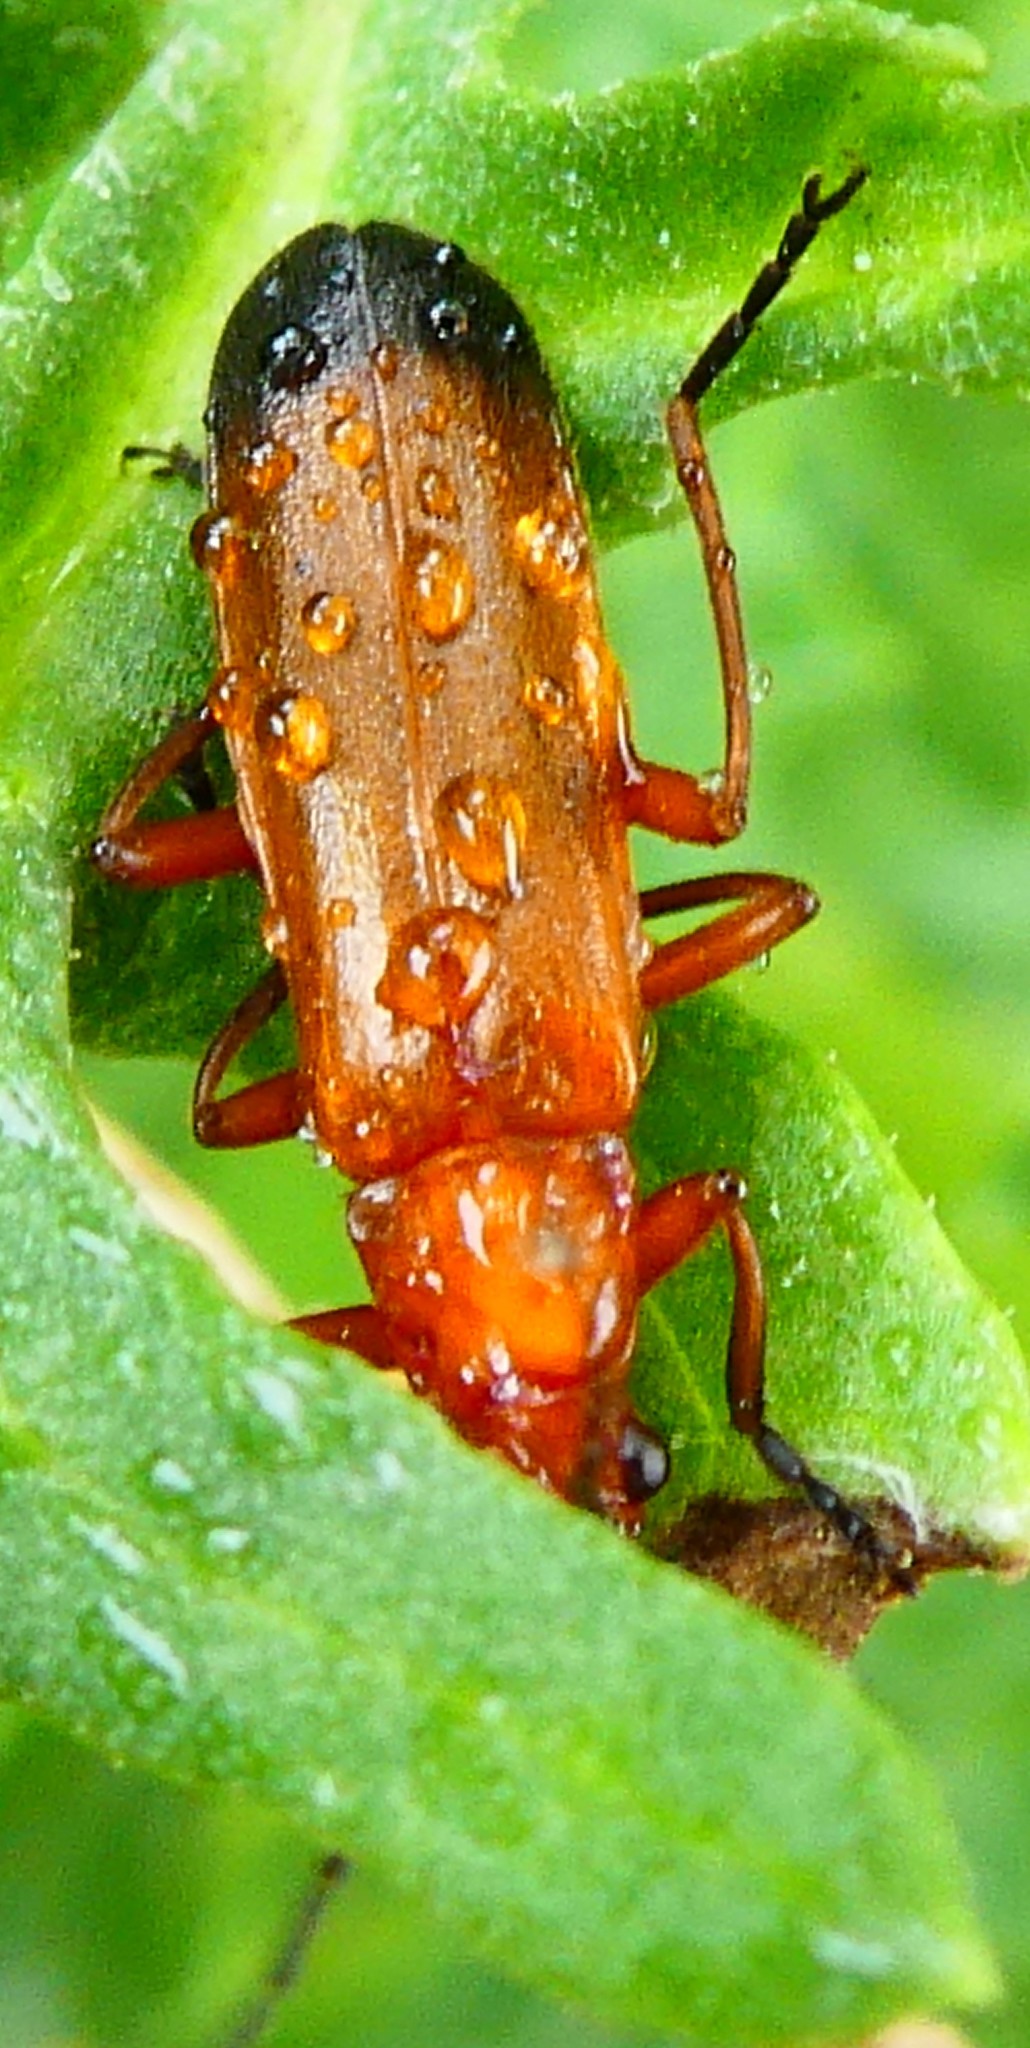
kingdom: Animalia
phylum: Arthropoda
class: Insecta
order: Coleoptera
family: Cantharidae
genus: Rhagonycha
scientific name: Rhagonycha fulva
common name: Common red soldier beetle
